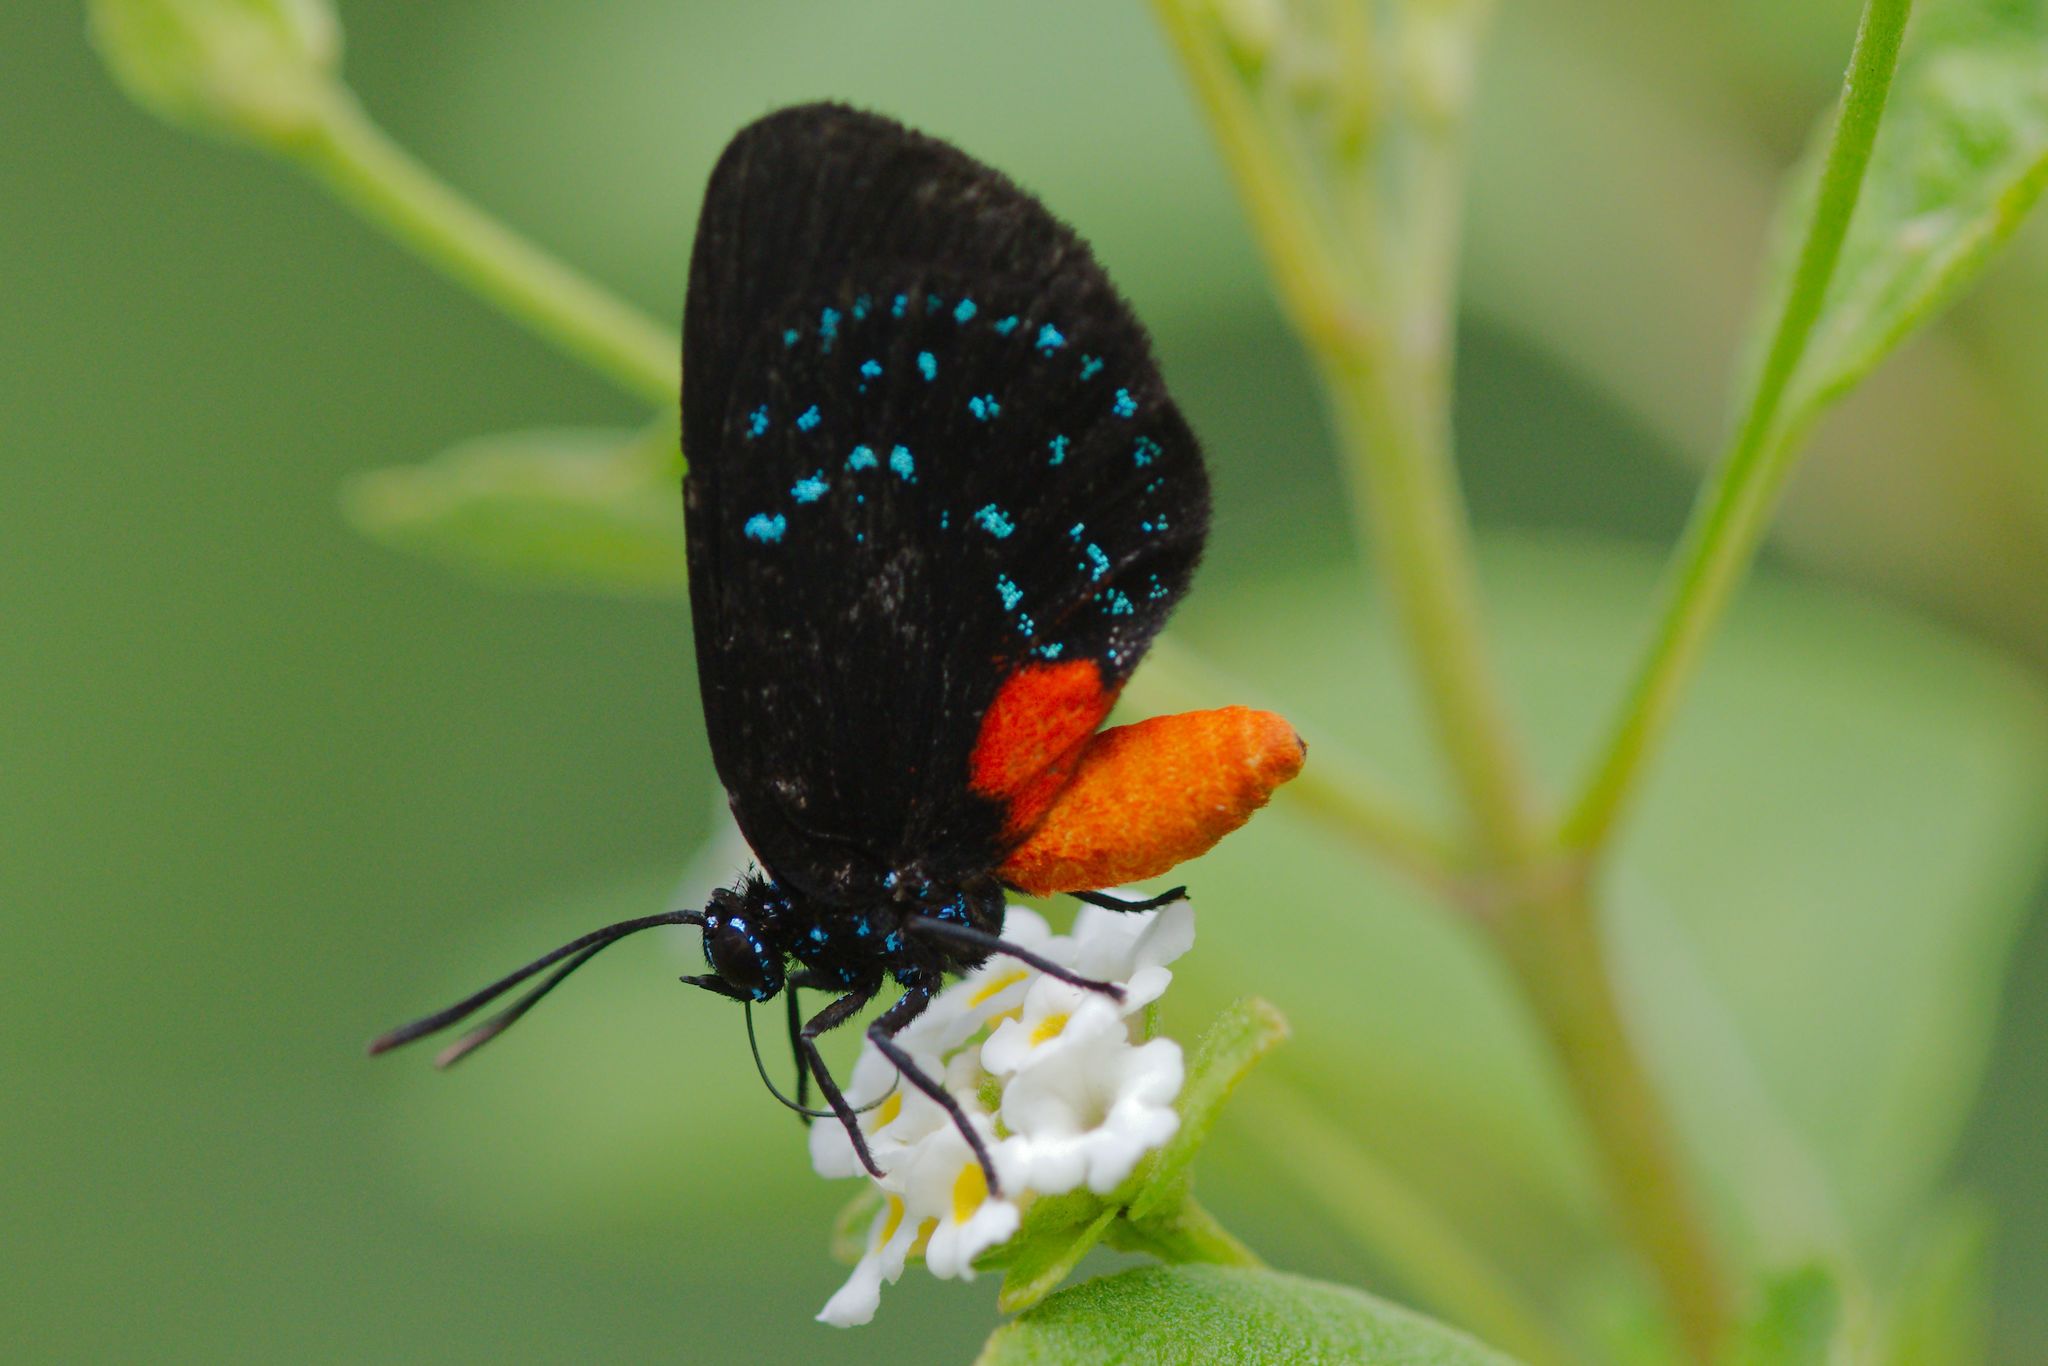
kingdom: Animalia
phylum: Arthropoda
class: Insecta
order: Lepidoptera
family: Lycaenidae
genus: Eumaeus
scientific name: Eumaeus atala
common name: Atala
